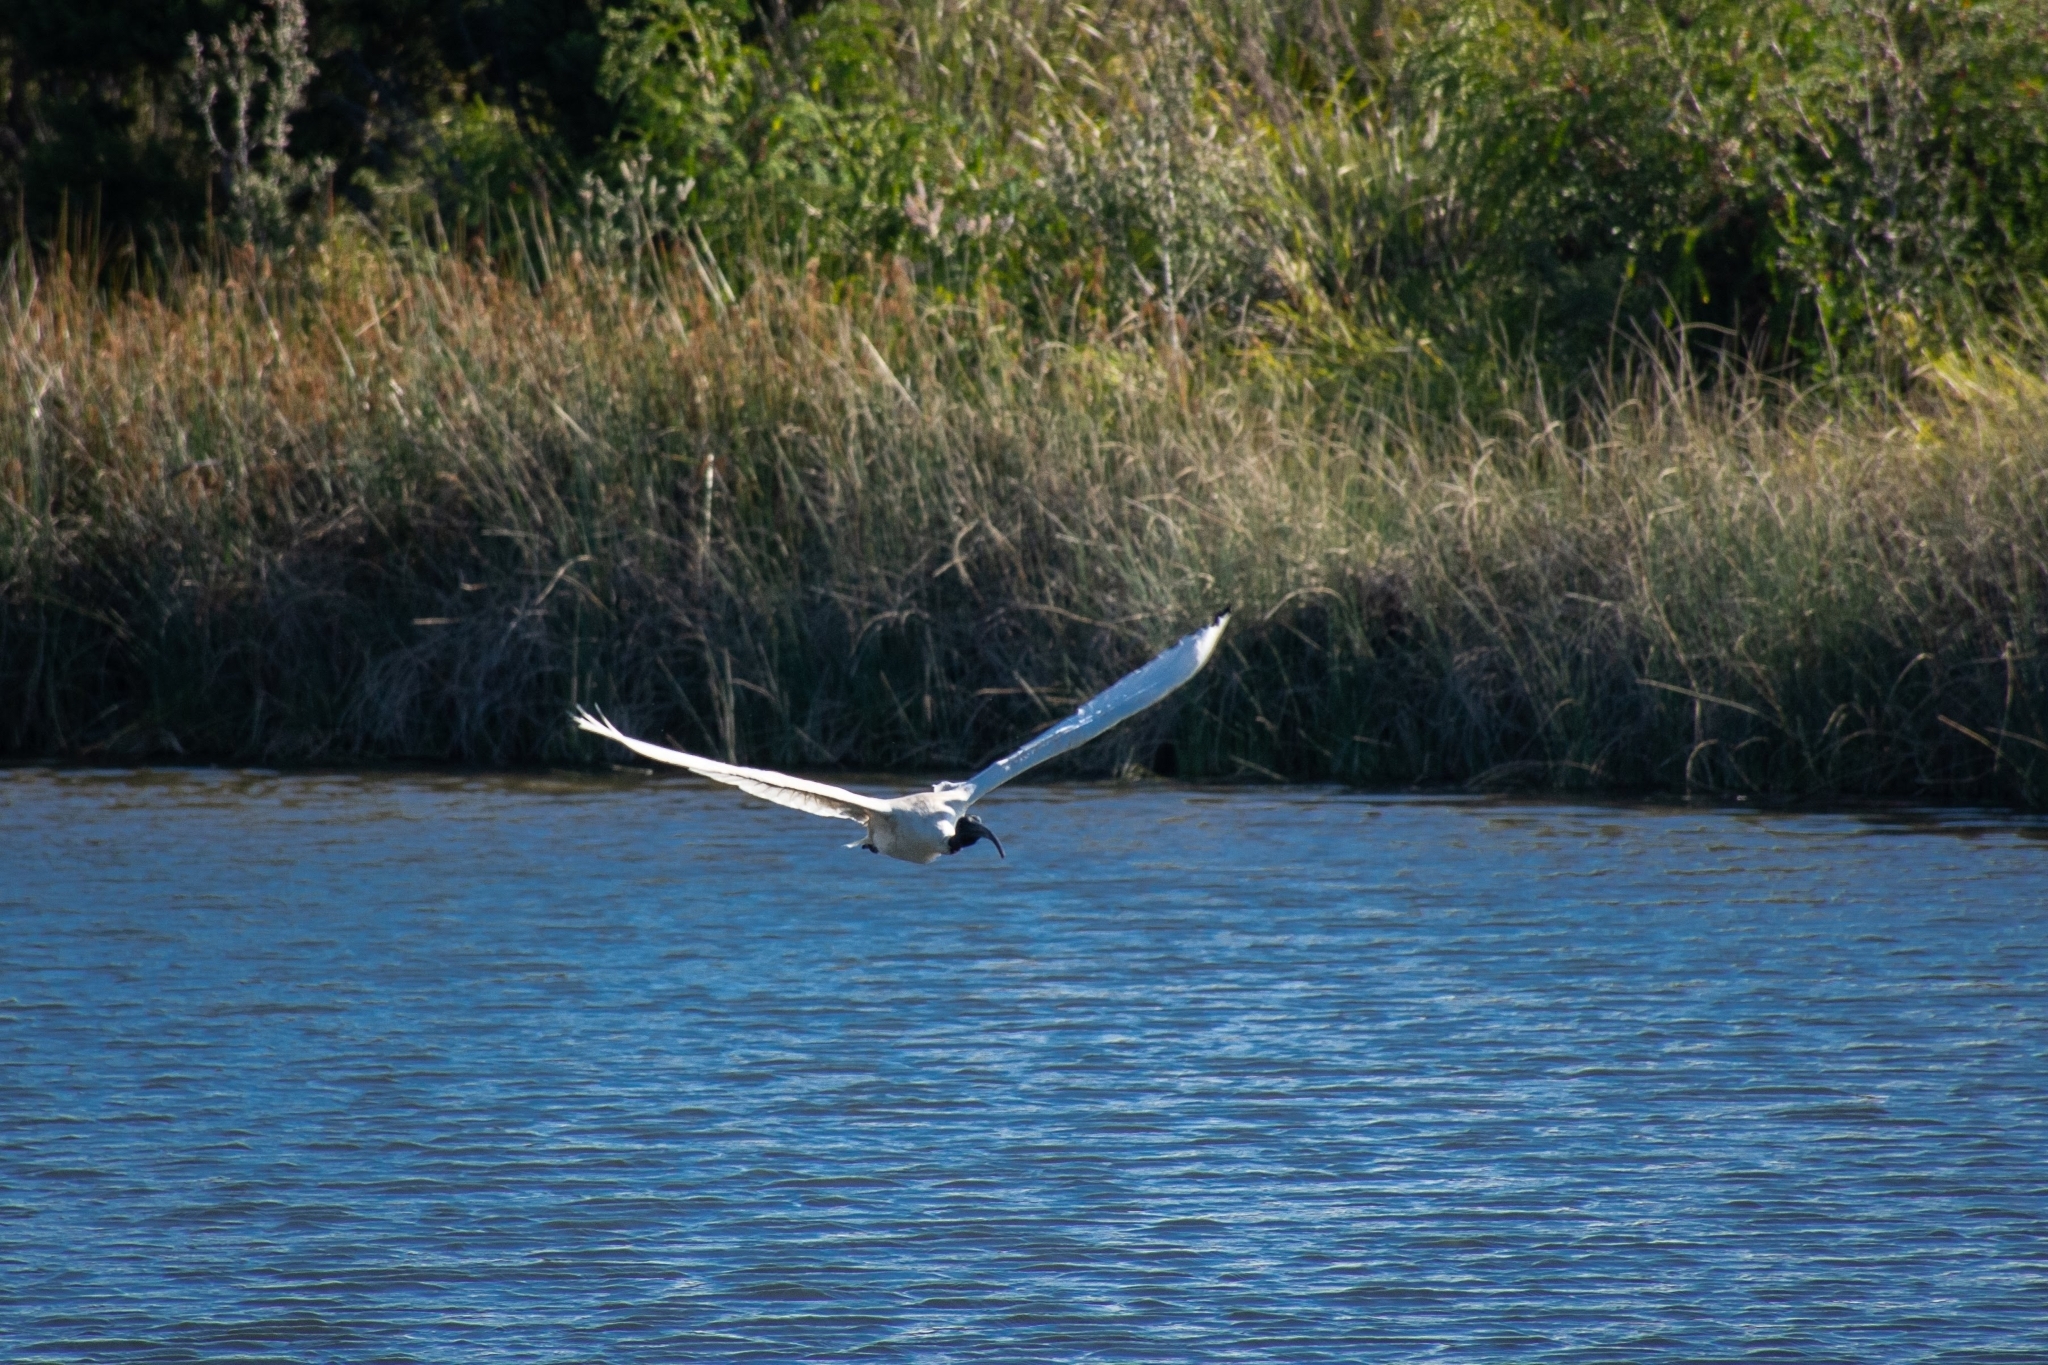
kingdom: Animalia
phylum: Chordata
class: Aves
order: Pelecaniformes
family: Threskiornithidae
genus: Threskiornis
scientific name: Threskiornis molucca
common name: Australian white ibis
